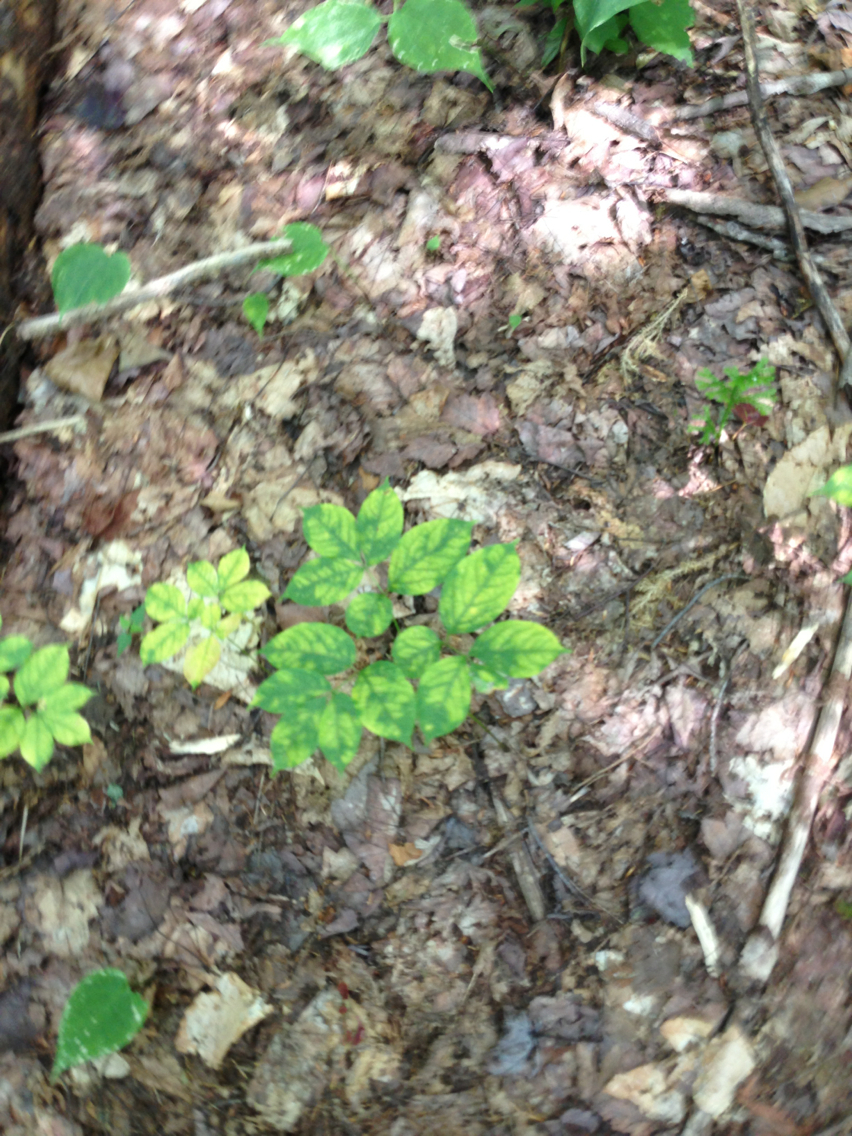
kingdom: Plantae
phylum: Tracheophyta
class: Magnoliopsida
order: Apiales
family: Araliaceae
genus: Aralia
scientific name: Aralia nudicaulis
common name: Wild sarsaparilla
